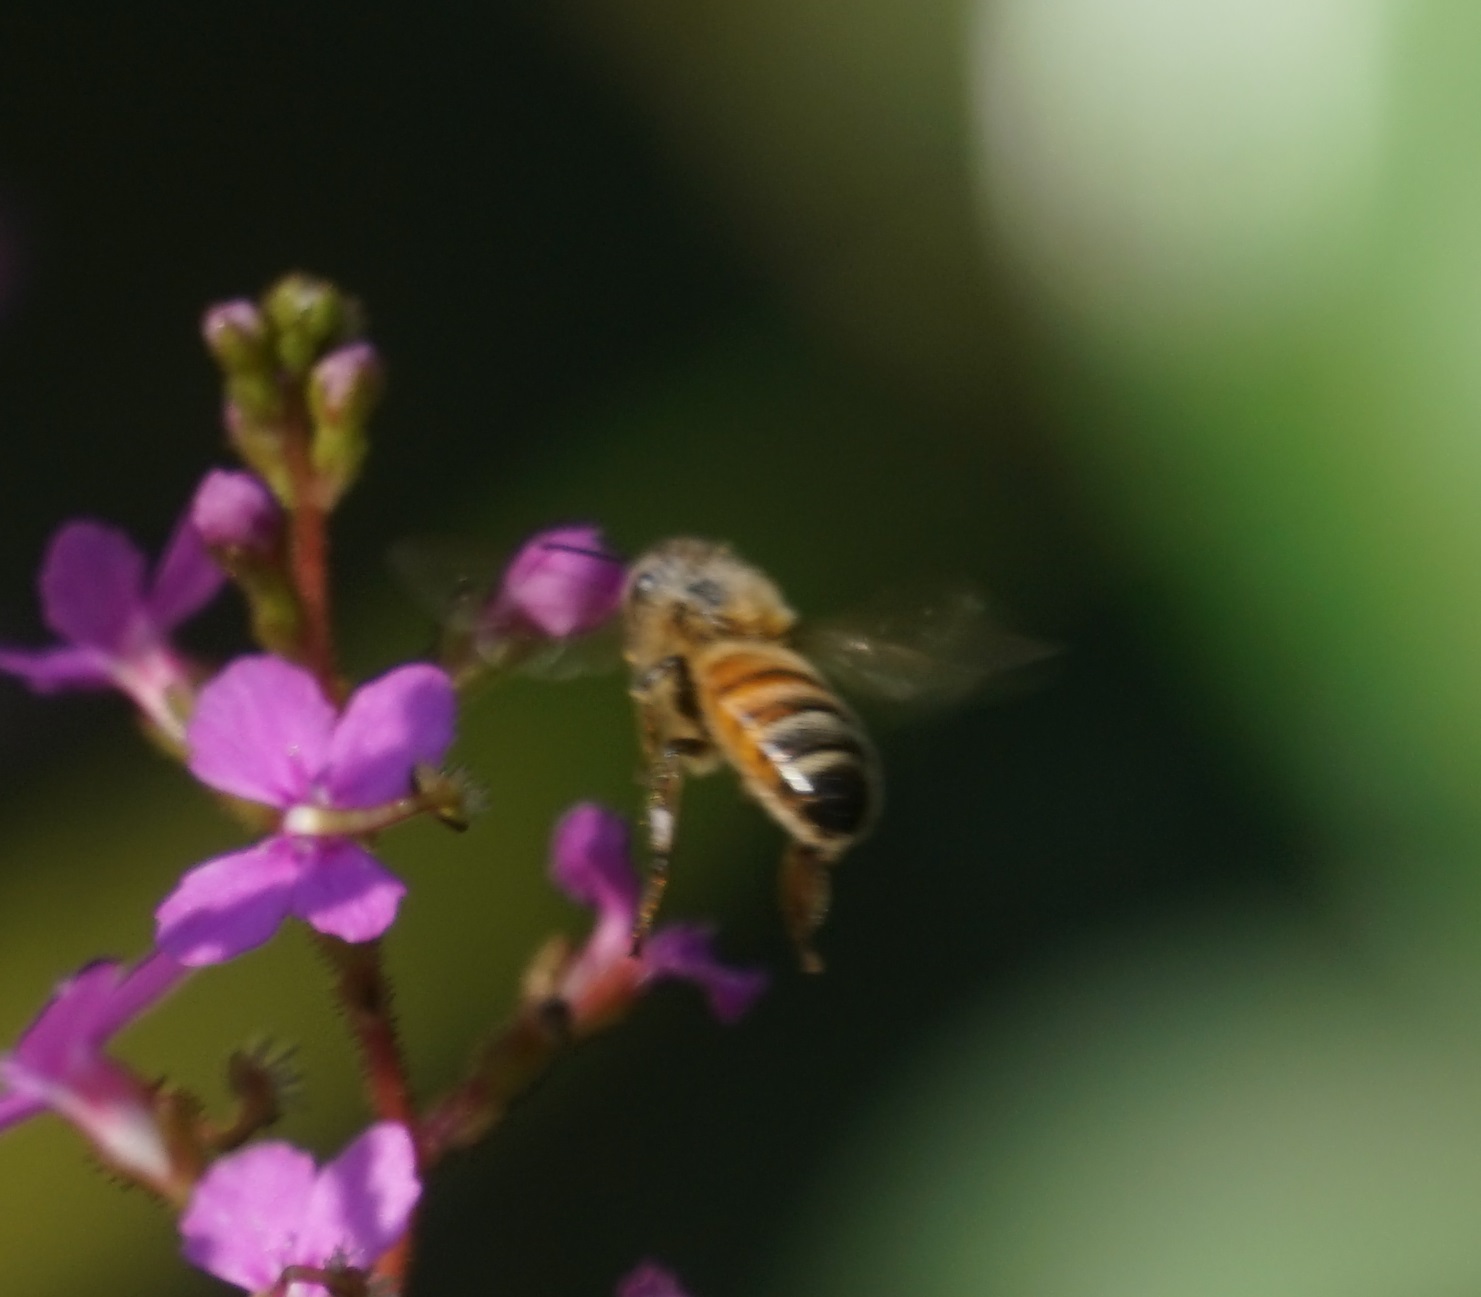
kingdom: Animalia
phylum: Arthropoda
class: Insecta
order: Hymenoptera
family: Apidae
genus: Apis
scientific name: Apis mellifera
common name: Honey bee
